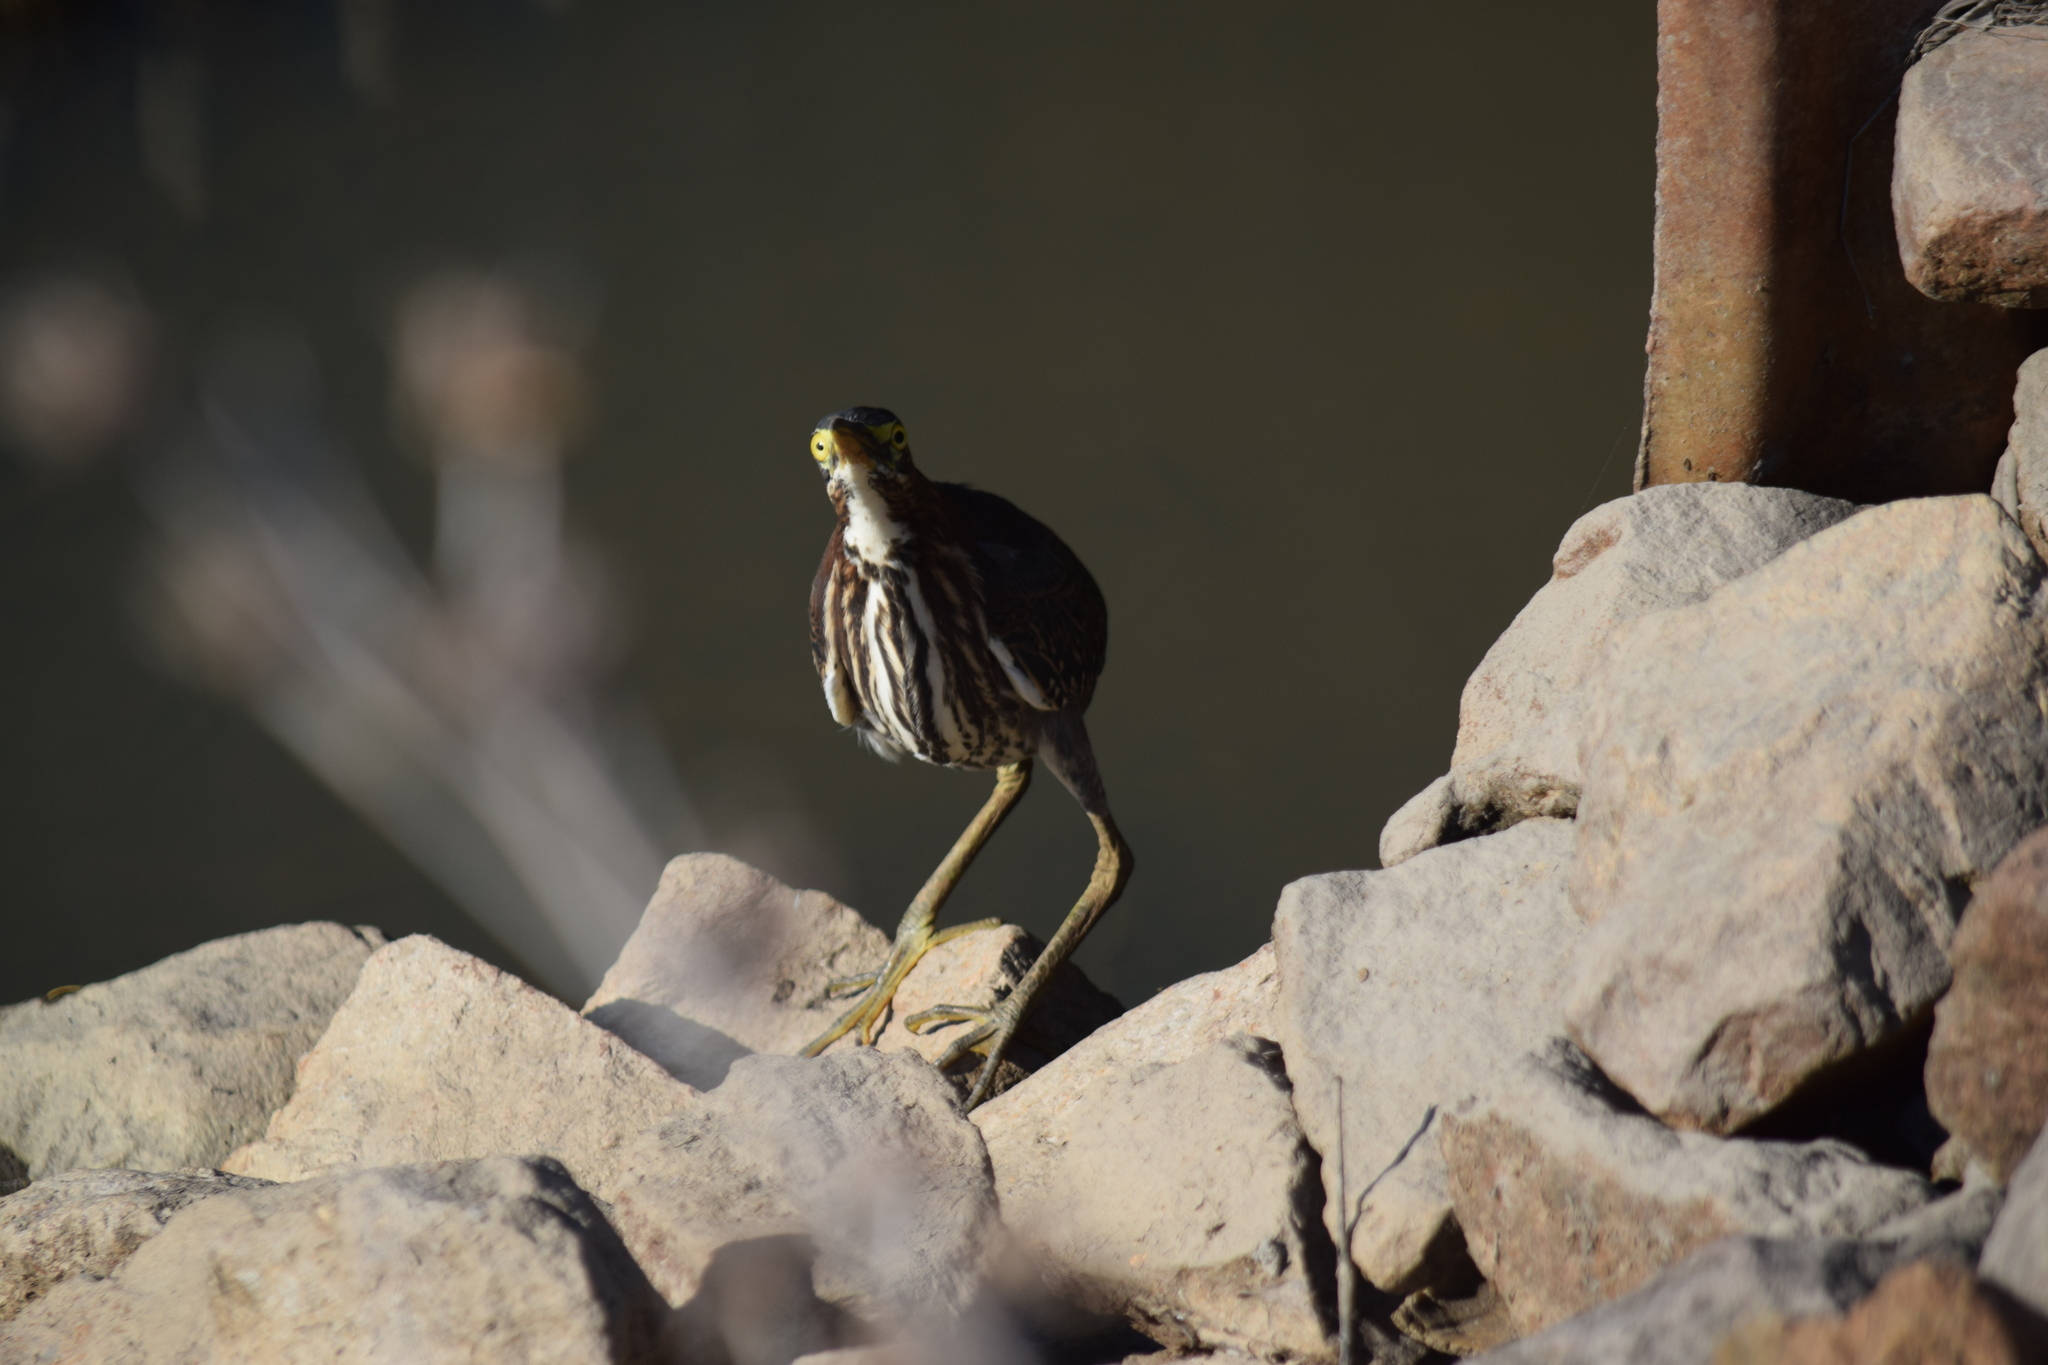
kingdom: Animalia
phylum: Chordata
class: Aves
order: Pelecaniformes
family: Ardeidae
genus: Butorides
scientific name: Butorides virescens
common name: Green heron
